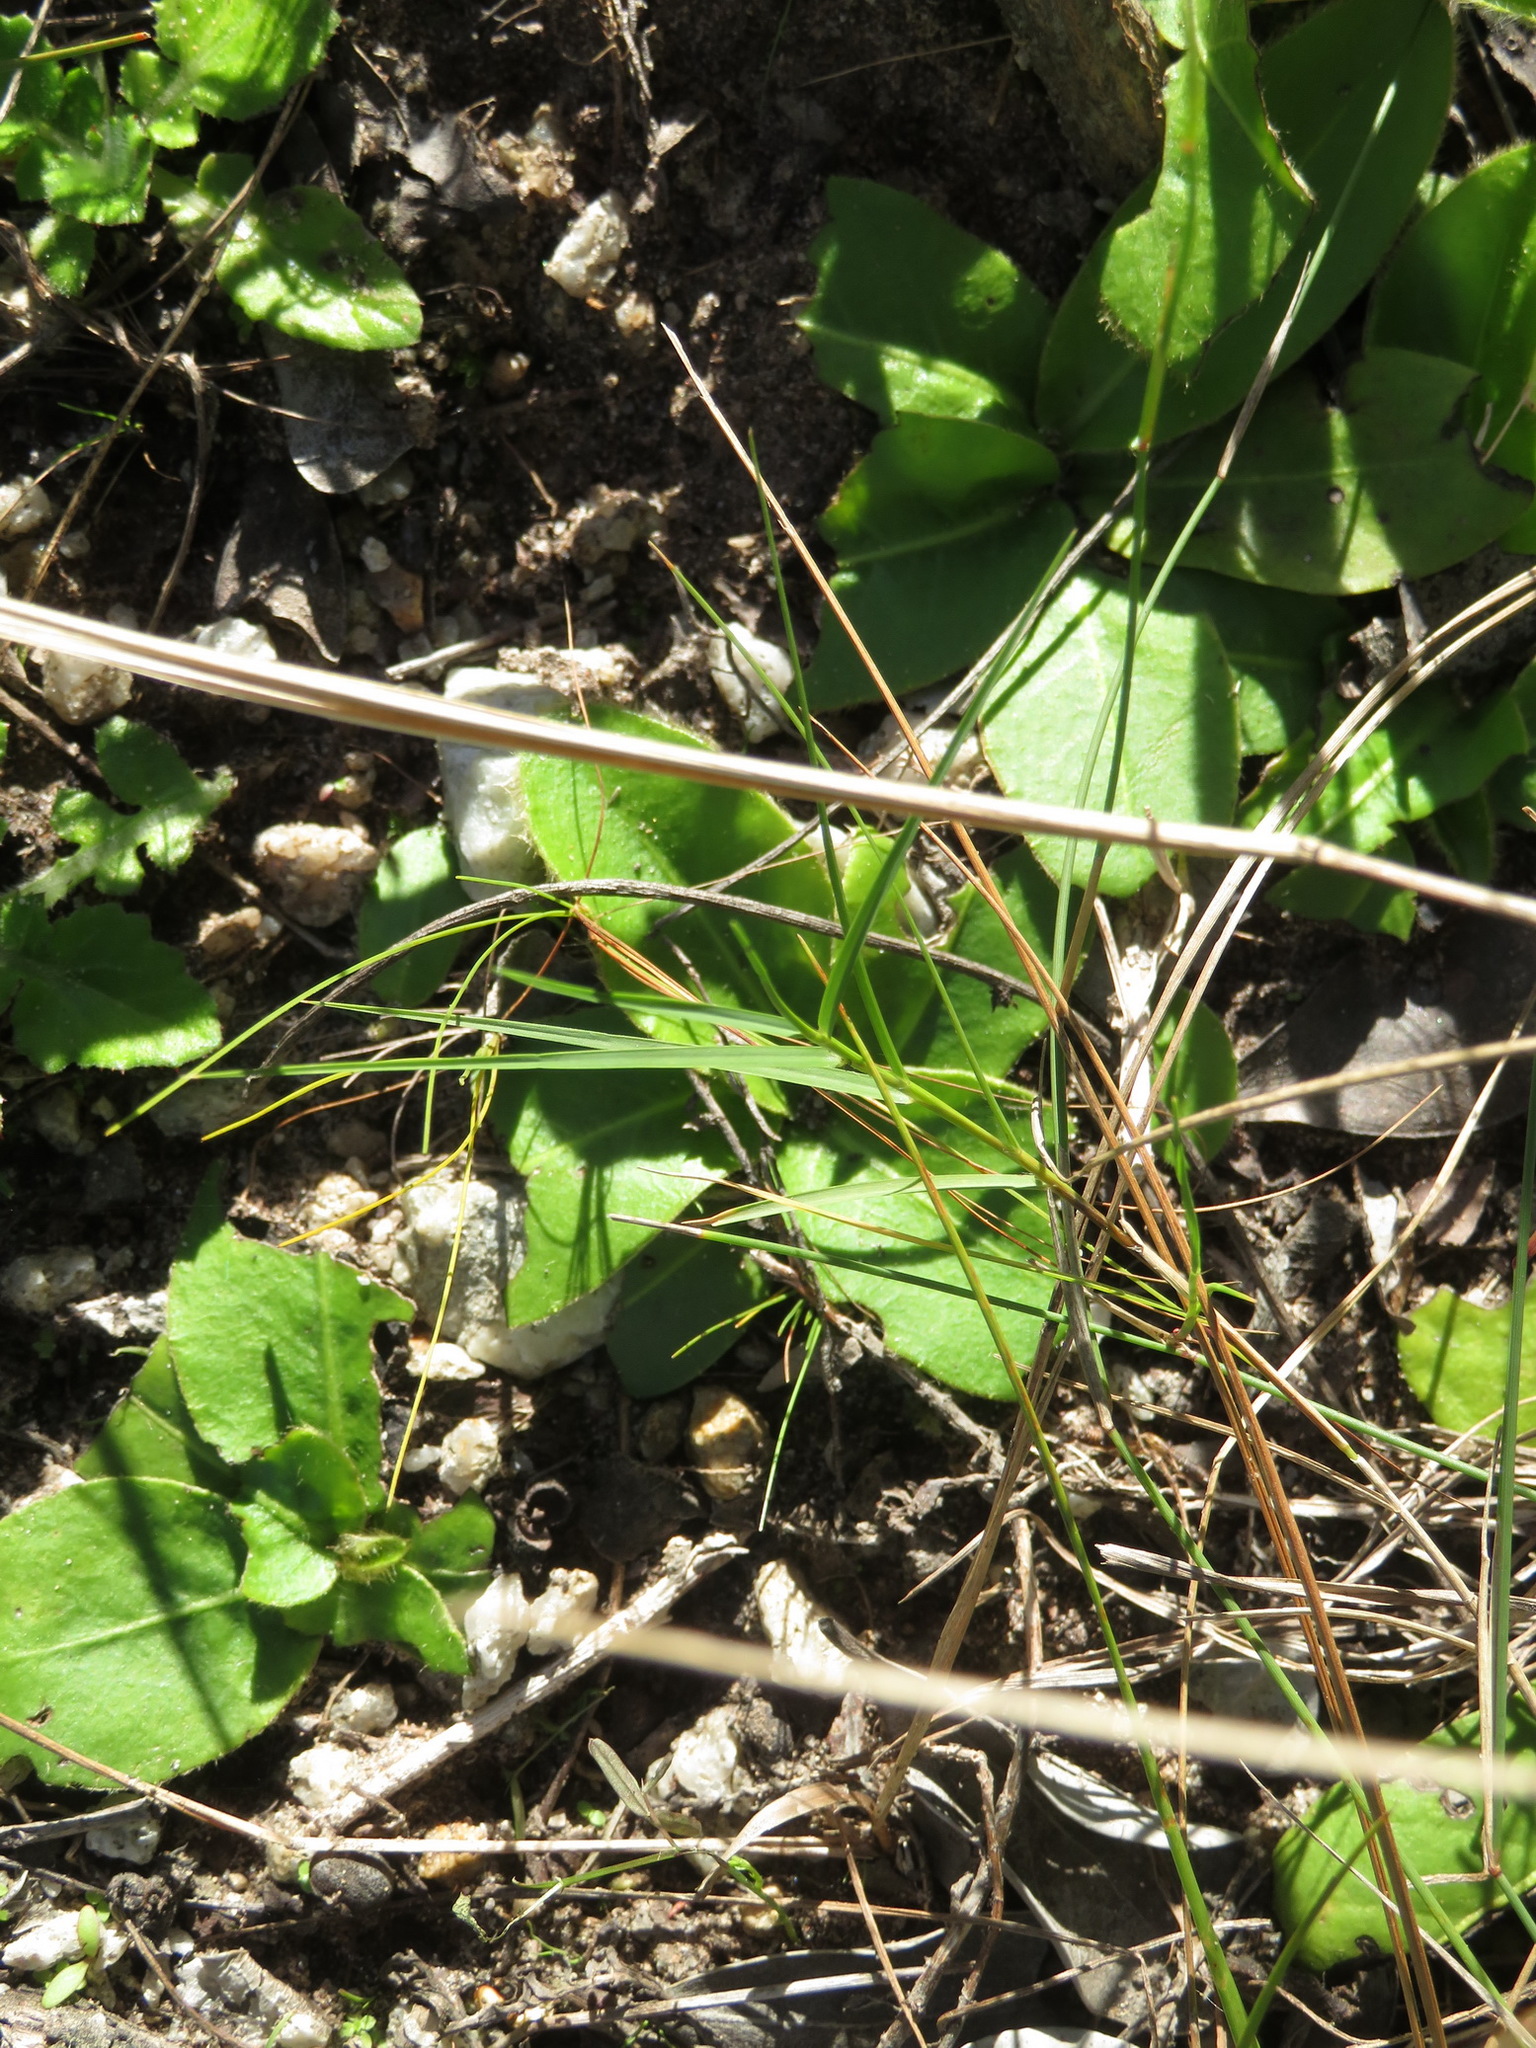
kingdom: Plantae
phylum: Tracheophyta
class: Magnoliopsida
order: Asterales
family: Asteraceae
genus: Piloselloides
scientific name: Piloselloides hirsuta
